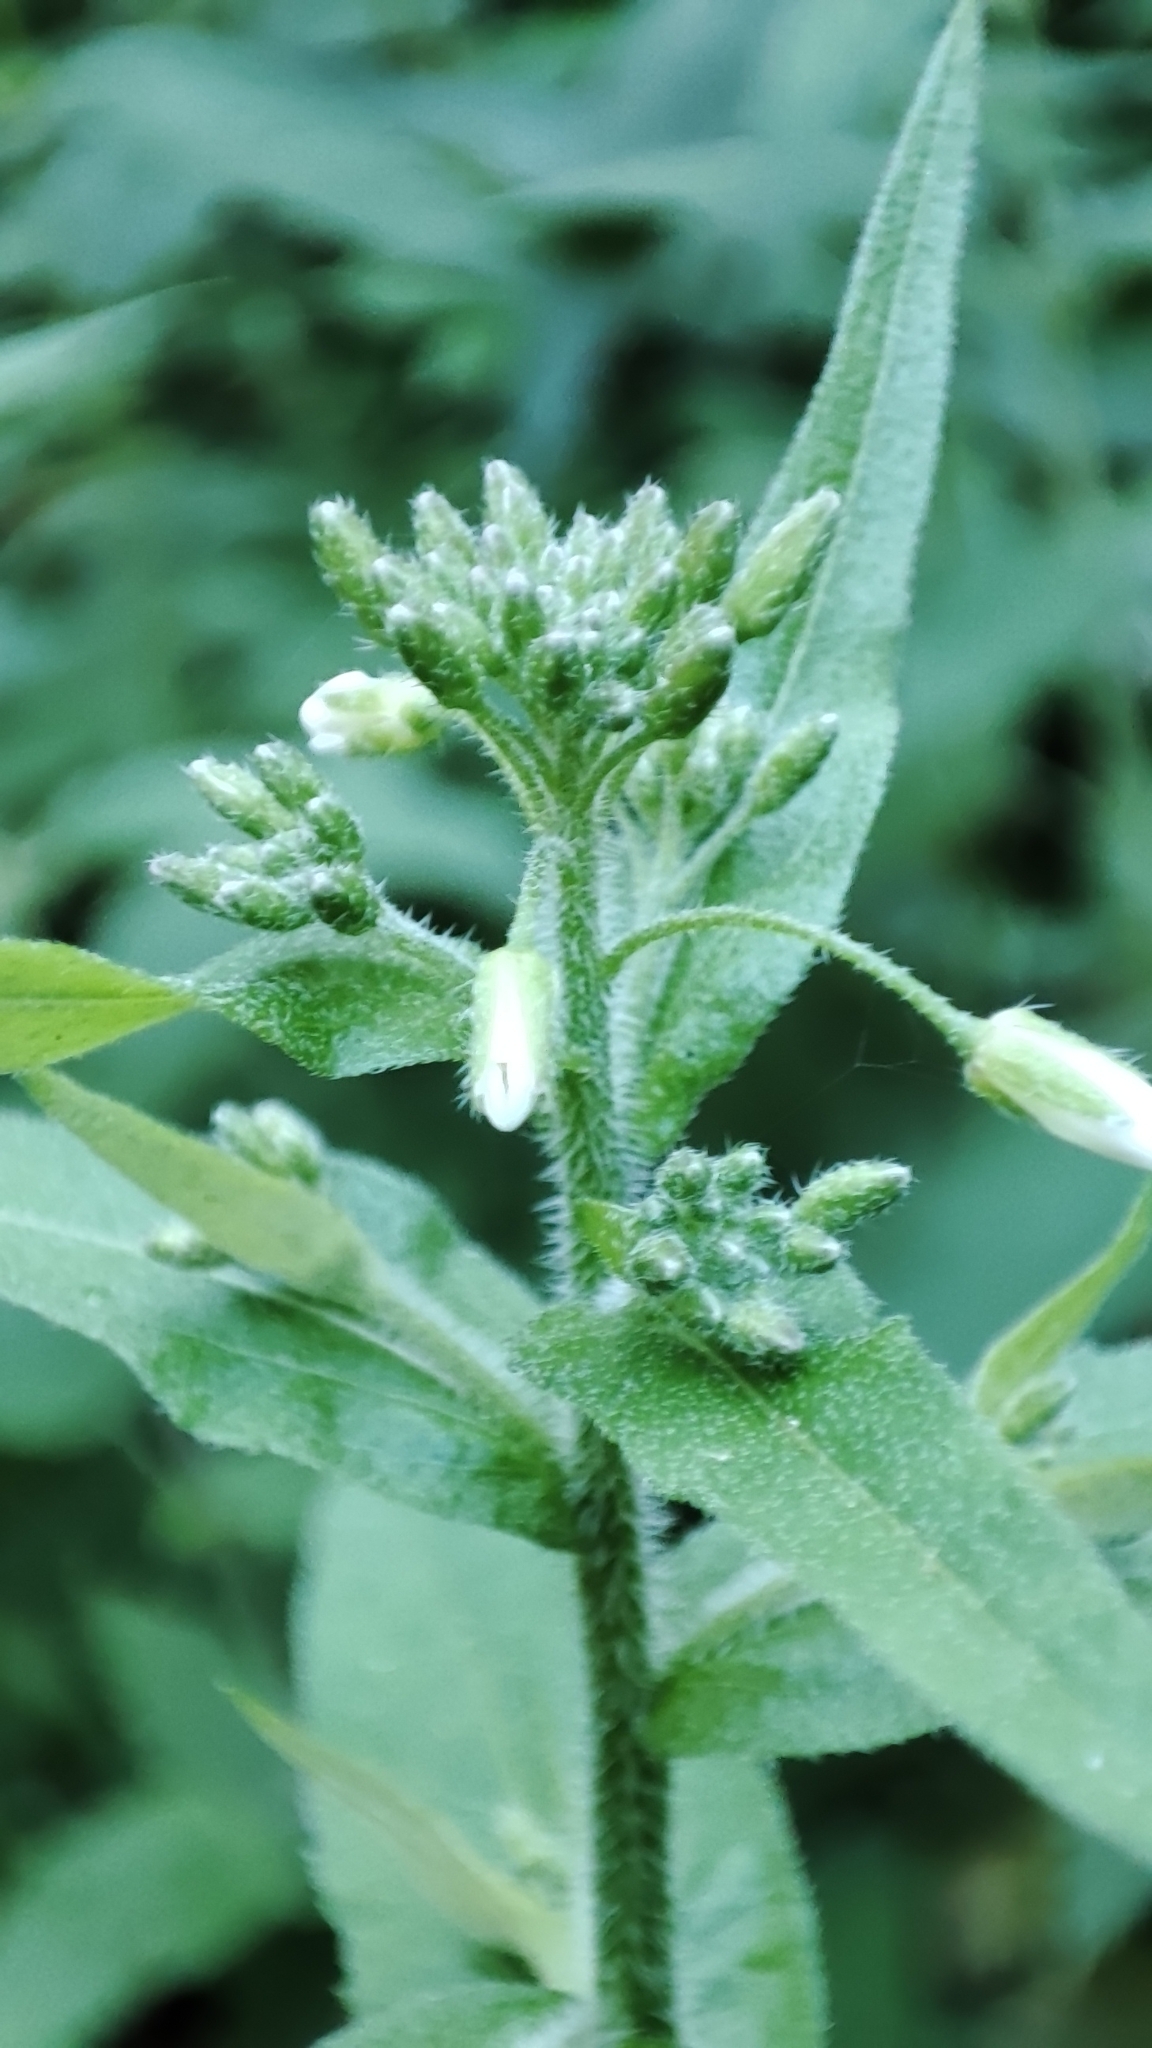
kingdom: Plantae
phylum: Tracheophyta
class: Magnoliopsida
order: Brassicales
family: Brassicaceae
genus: Catolobus
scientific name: Catolobus pendulus
